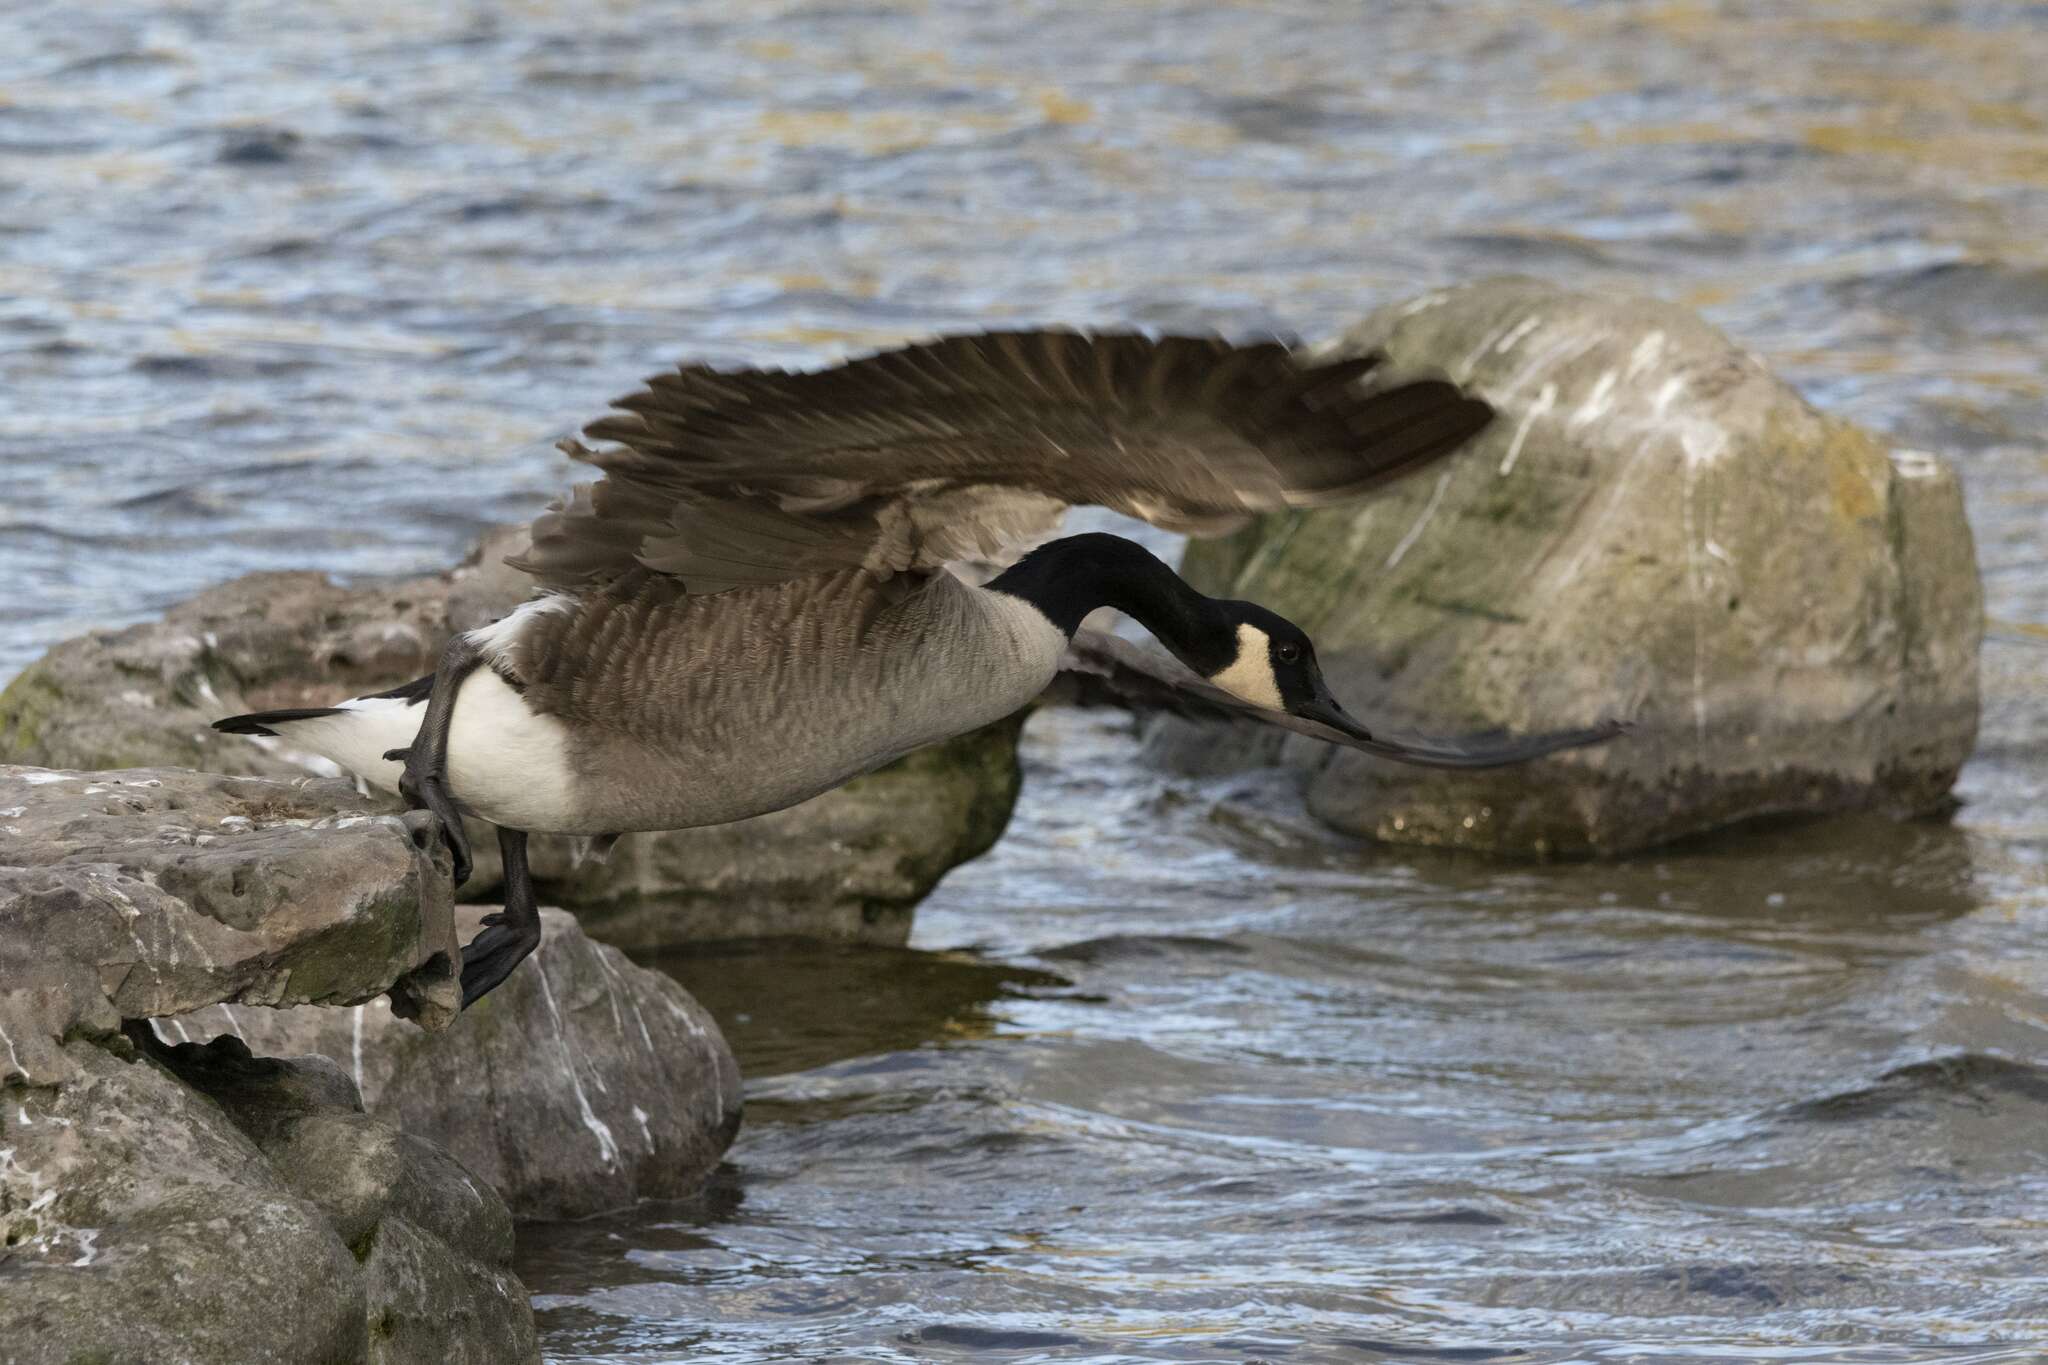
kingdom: Animalia
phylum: Chordata
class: Aves
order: Anseriformes
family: Anatidae
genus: Branta
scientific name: Branta canadensis
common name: Canada goose
